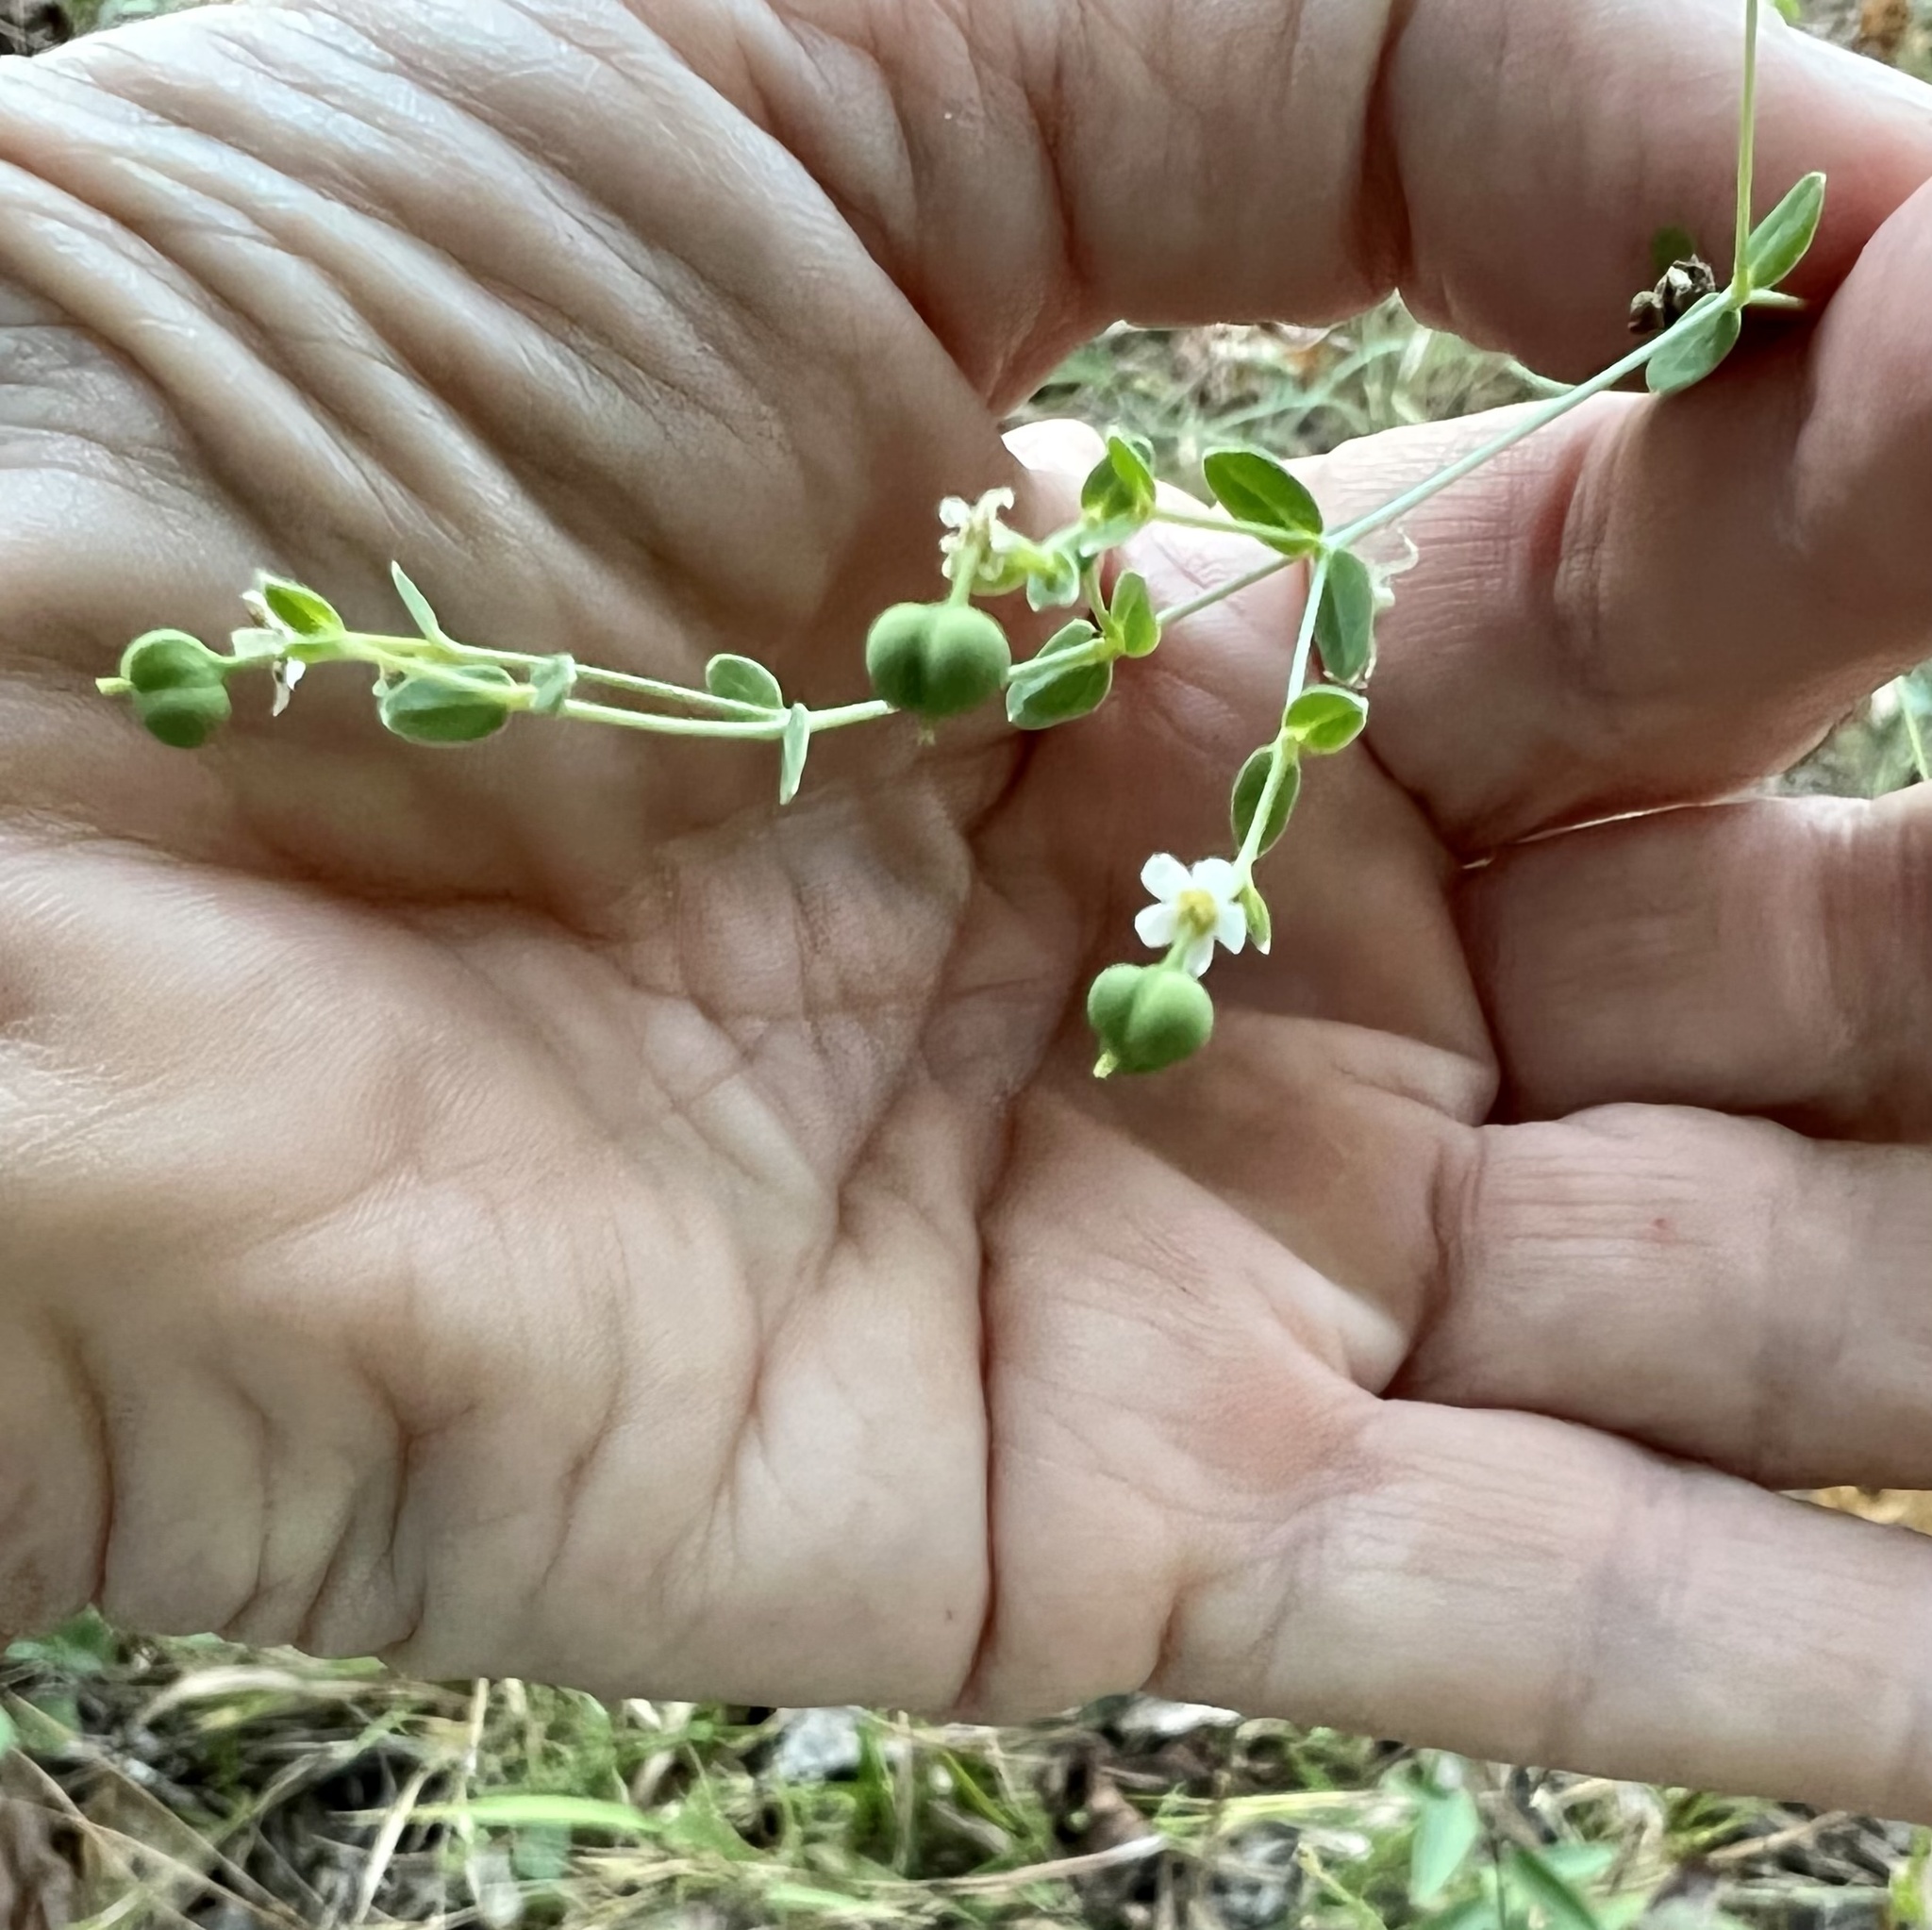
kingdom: Plantae
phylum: Tracheophyta
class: Magnoliopsida
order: Malpighiales
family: Euphorbiaceae
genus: Euphorbia
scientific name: Euphorbia corollata
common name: Flowering spurge
